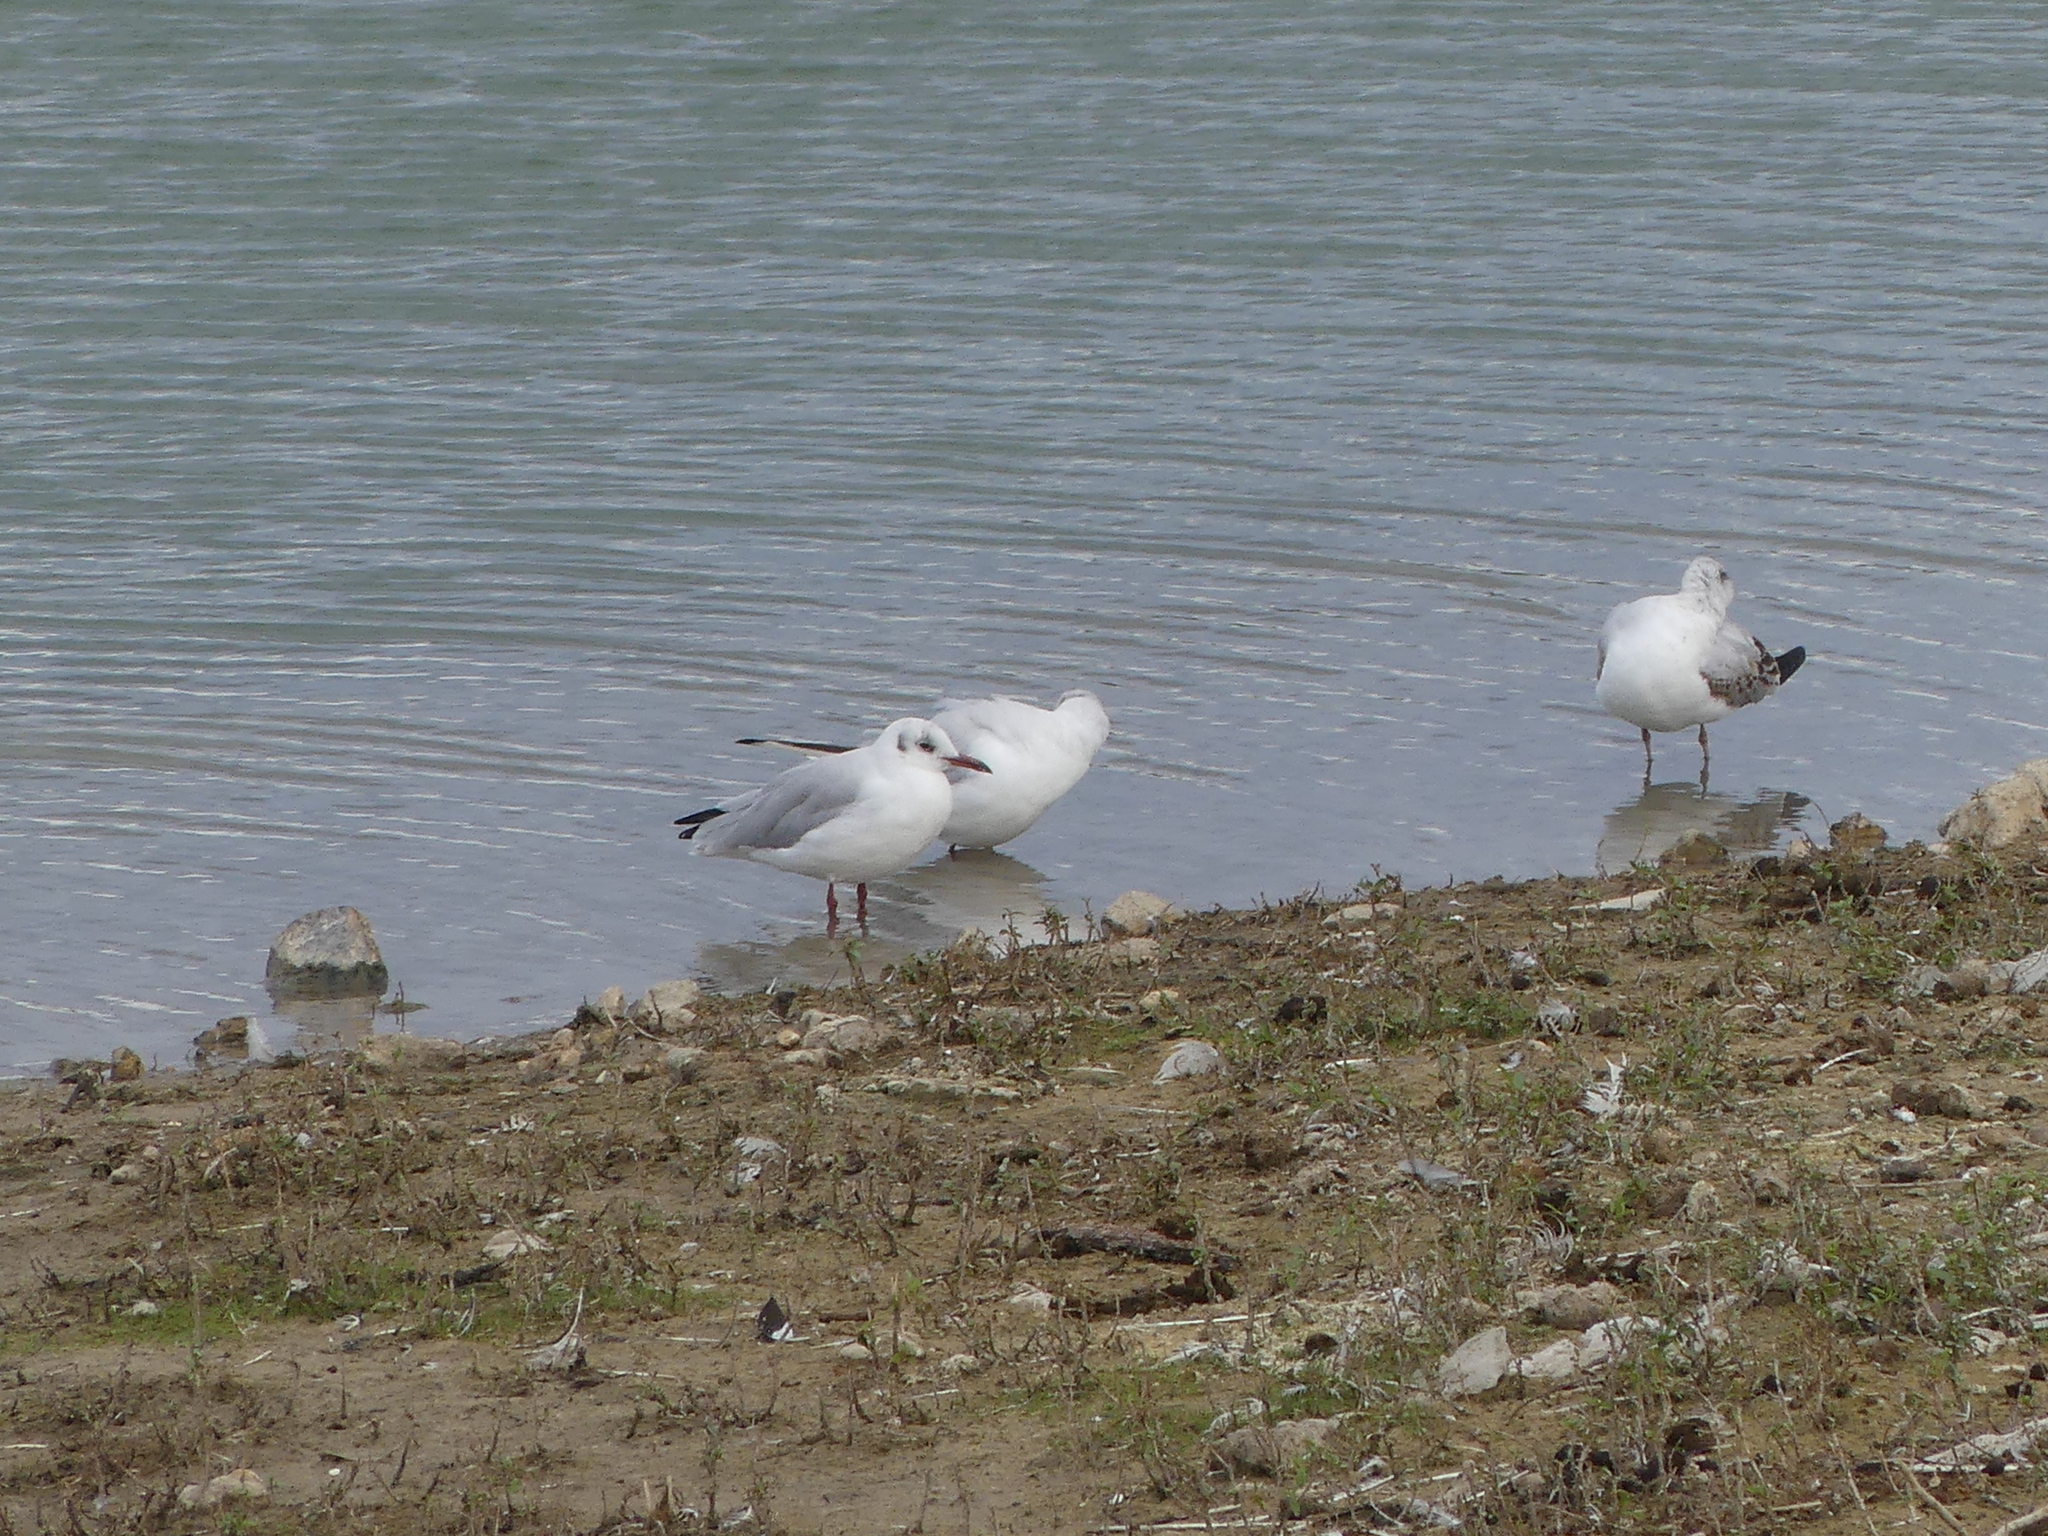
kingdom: Animalia
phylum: Chordata
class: Aves
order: Charadriiformes
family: Laridae
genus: Chroicocephalus
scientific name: Chroicocephalus ridibundus
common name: Black-headed gull
